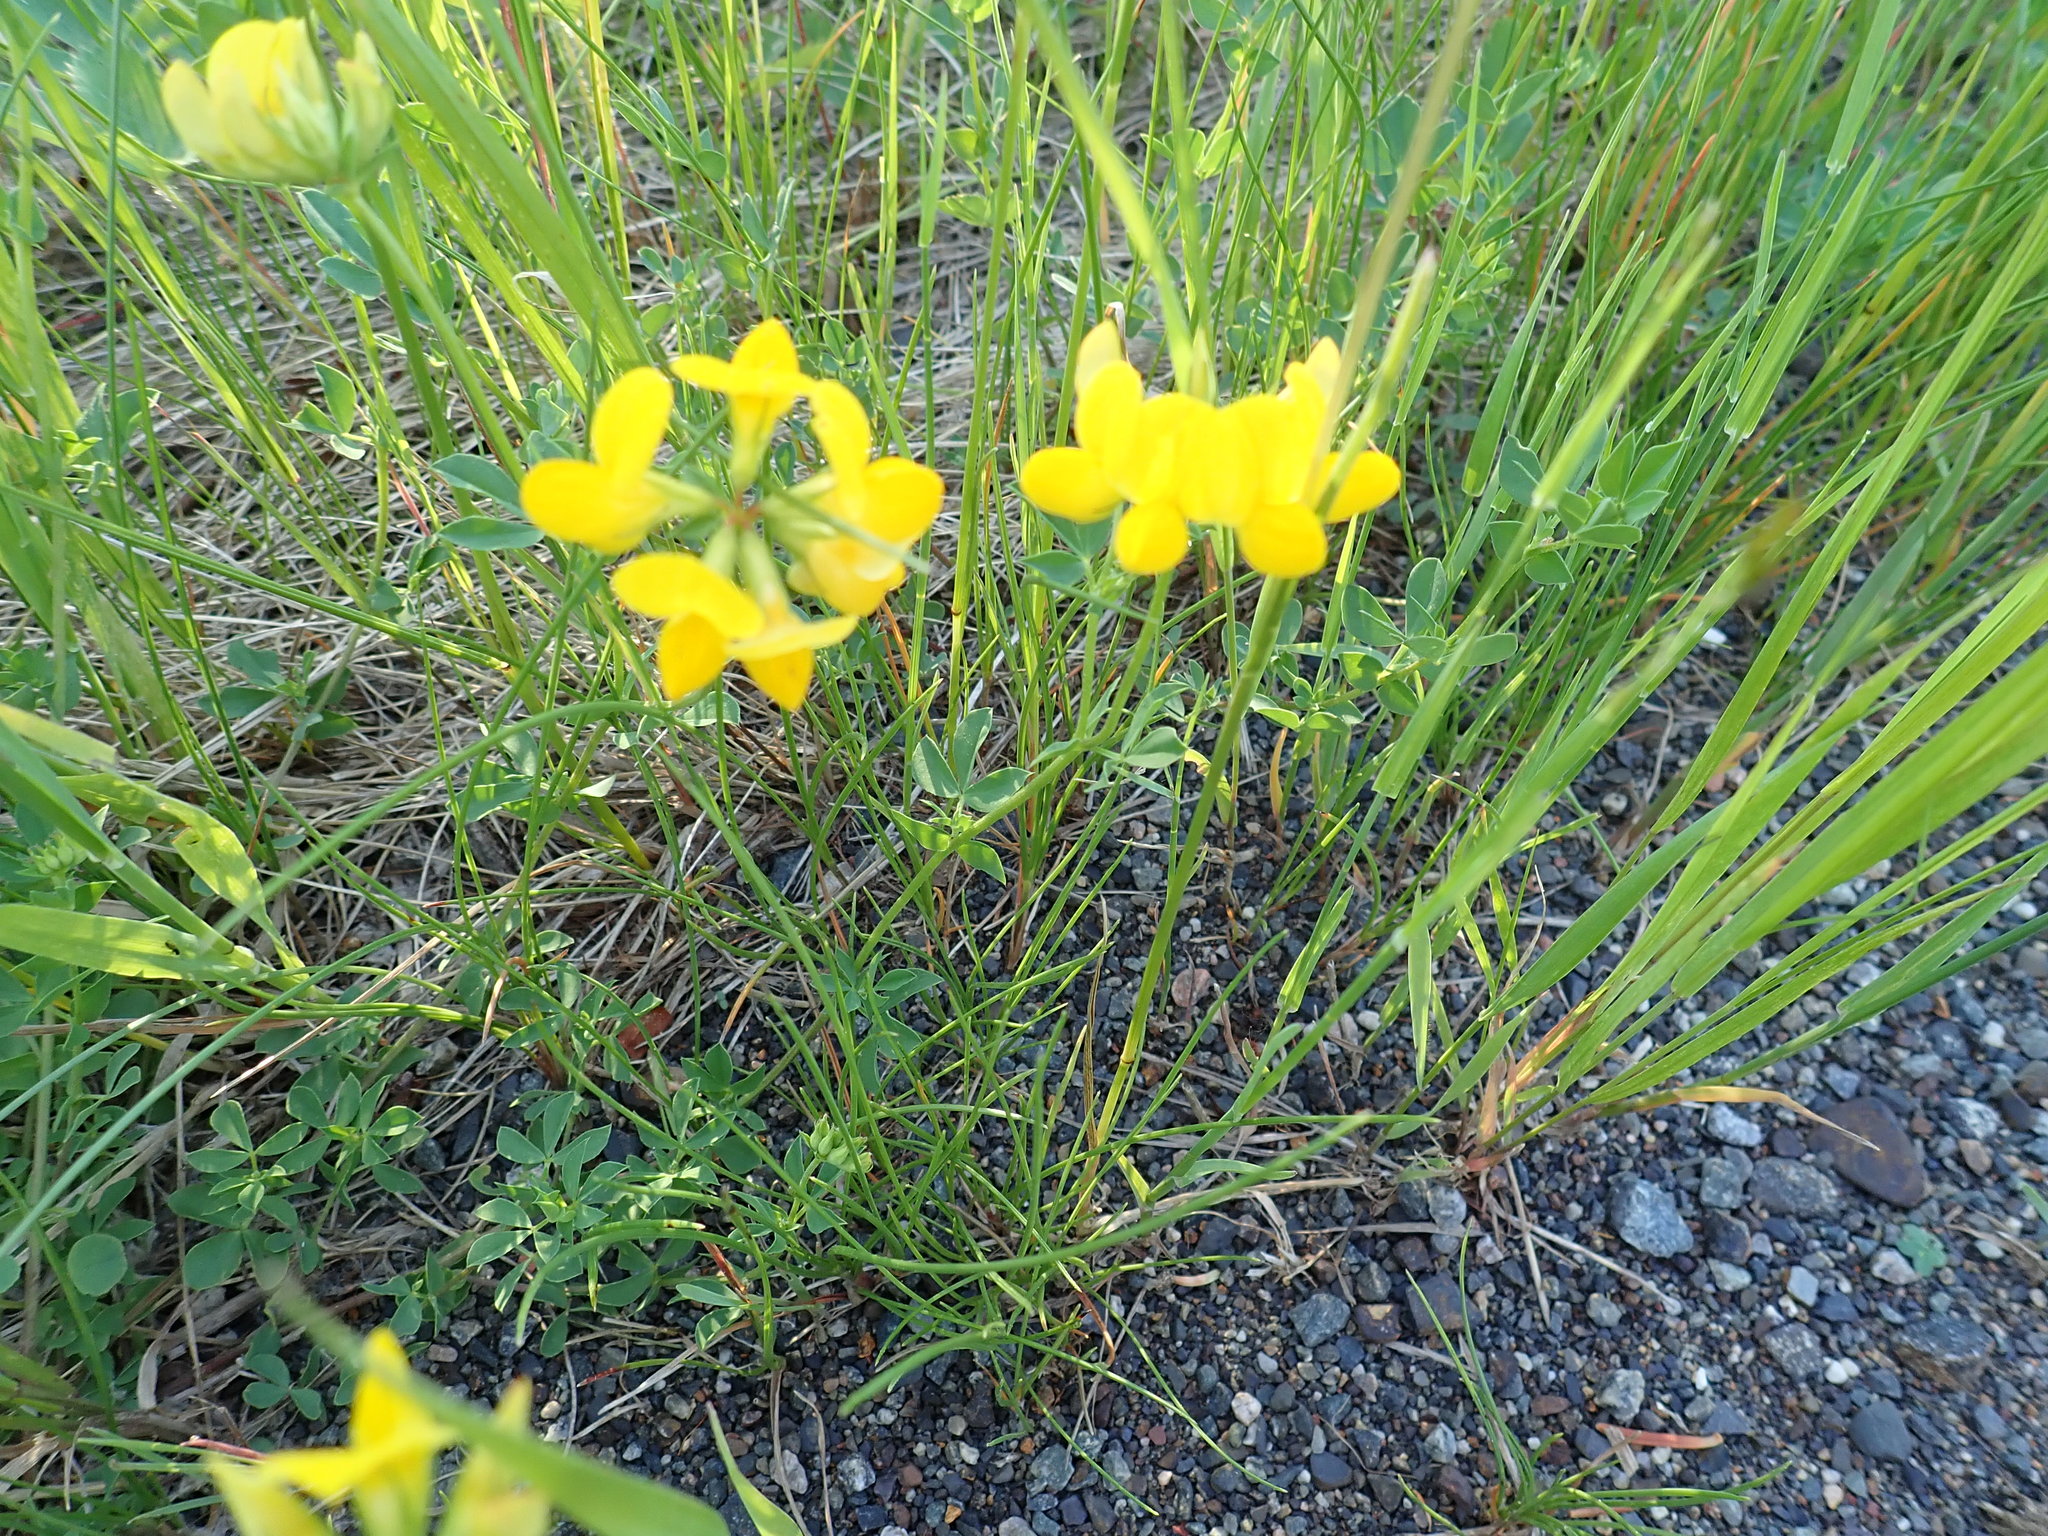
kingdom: Plantae
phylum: Tracheophyta
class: Magnoliopsida
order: Fabales
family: Fabaceae
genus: Lotus
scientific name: Lotus corniculatus
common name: Common bird's-foot-trefoil
